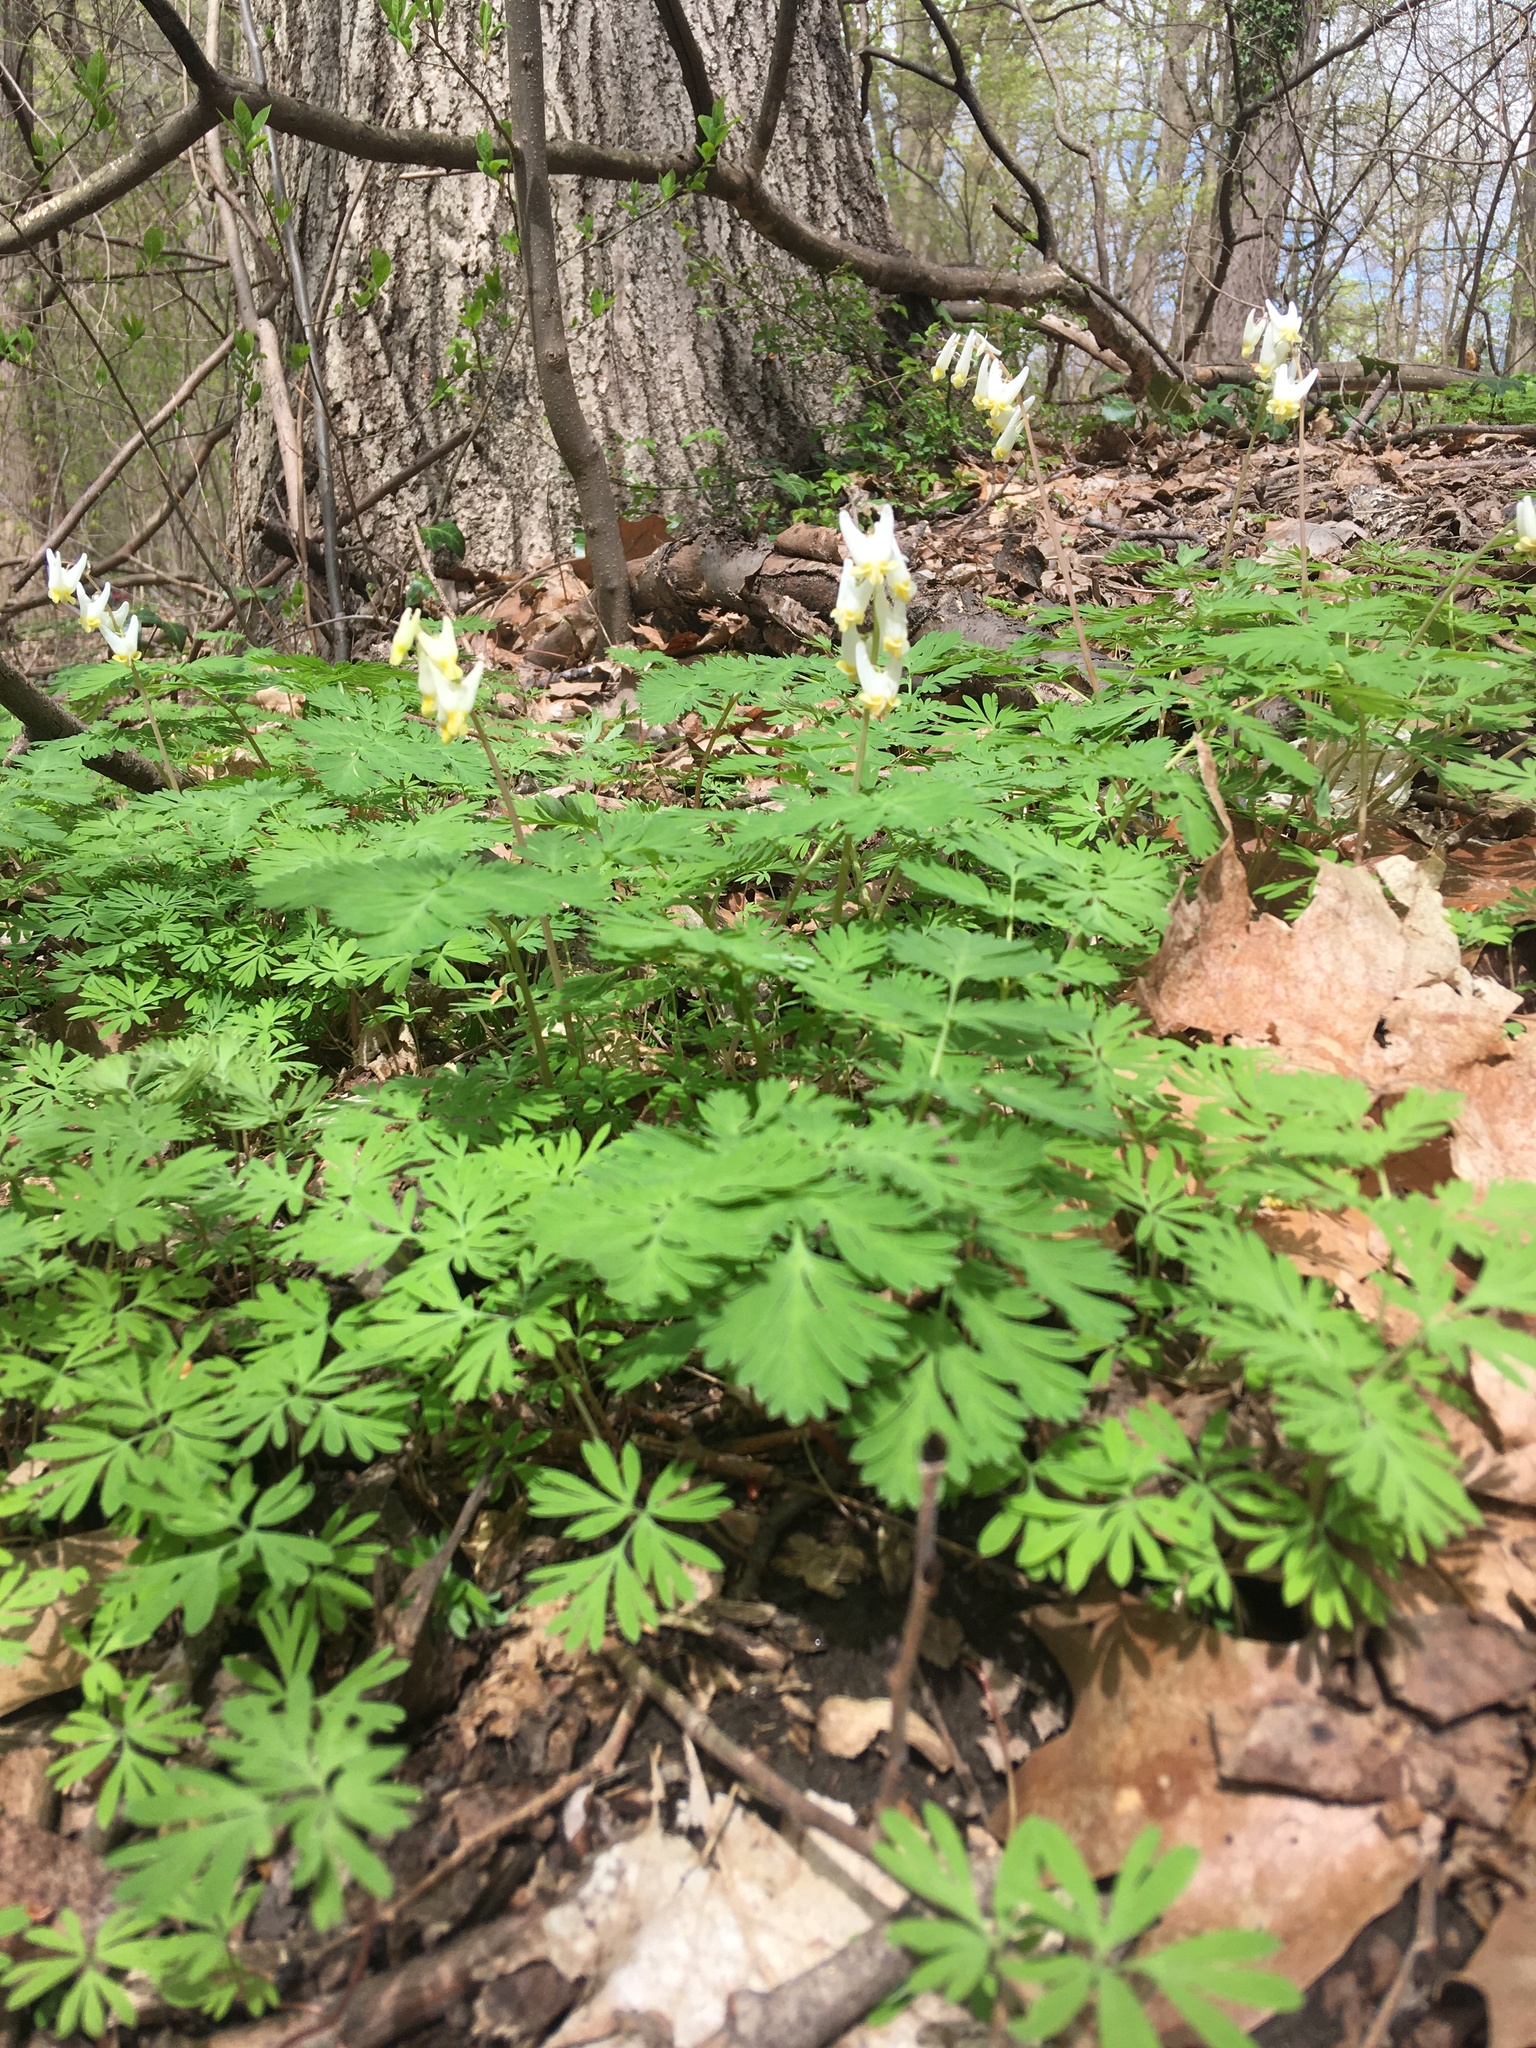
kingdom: Plantae
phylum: Tracheophyta
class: Magnoliopsida
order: Ranunculales
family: Papaveraceae
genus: Dicentra
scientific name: Dicentra cucullaria
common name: Dutchman's breeches
